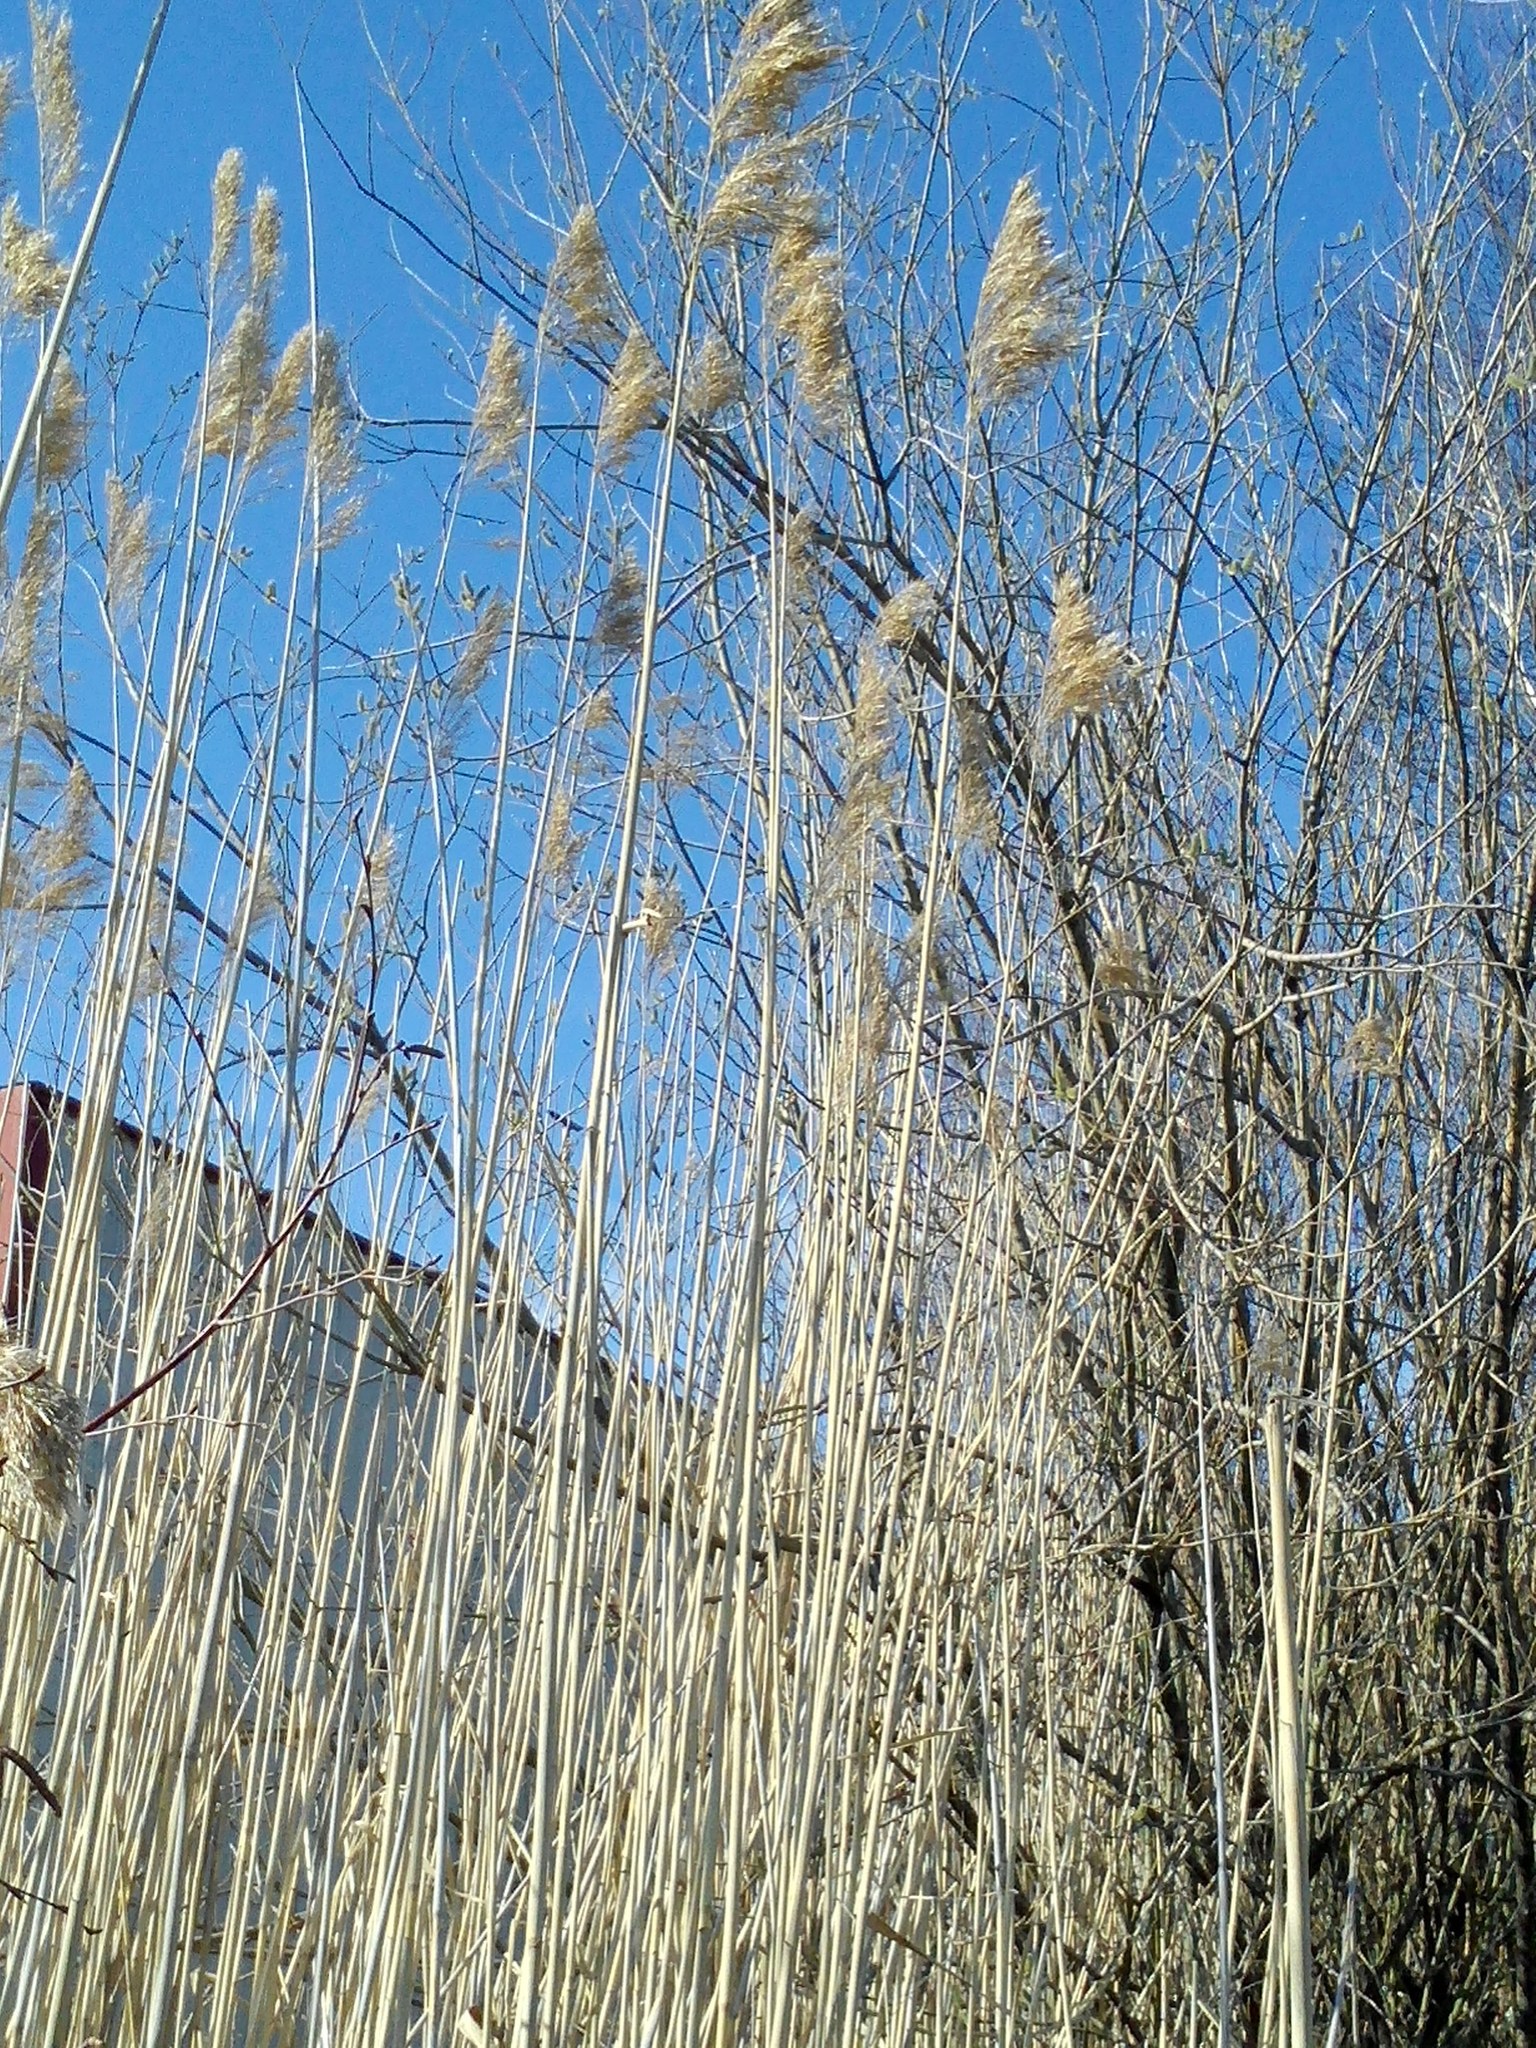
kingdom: Plantae
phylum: Tracheophyta
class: Liliopsida
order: Poales
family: Poaceae
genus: Phragmites
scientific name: Phragmites australis
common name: Common reed
